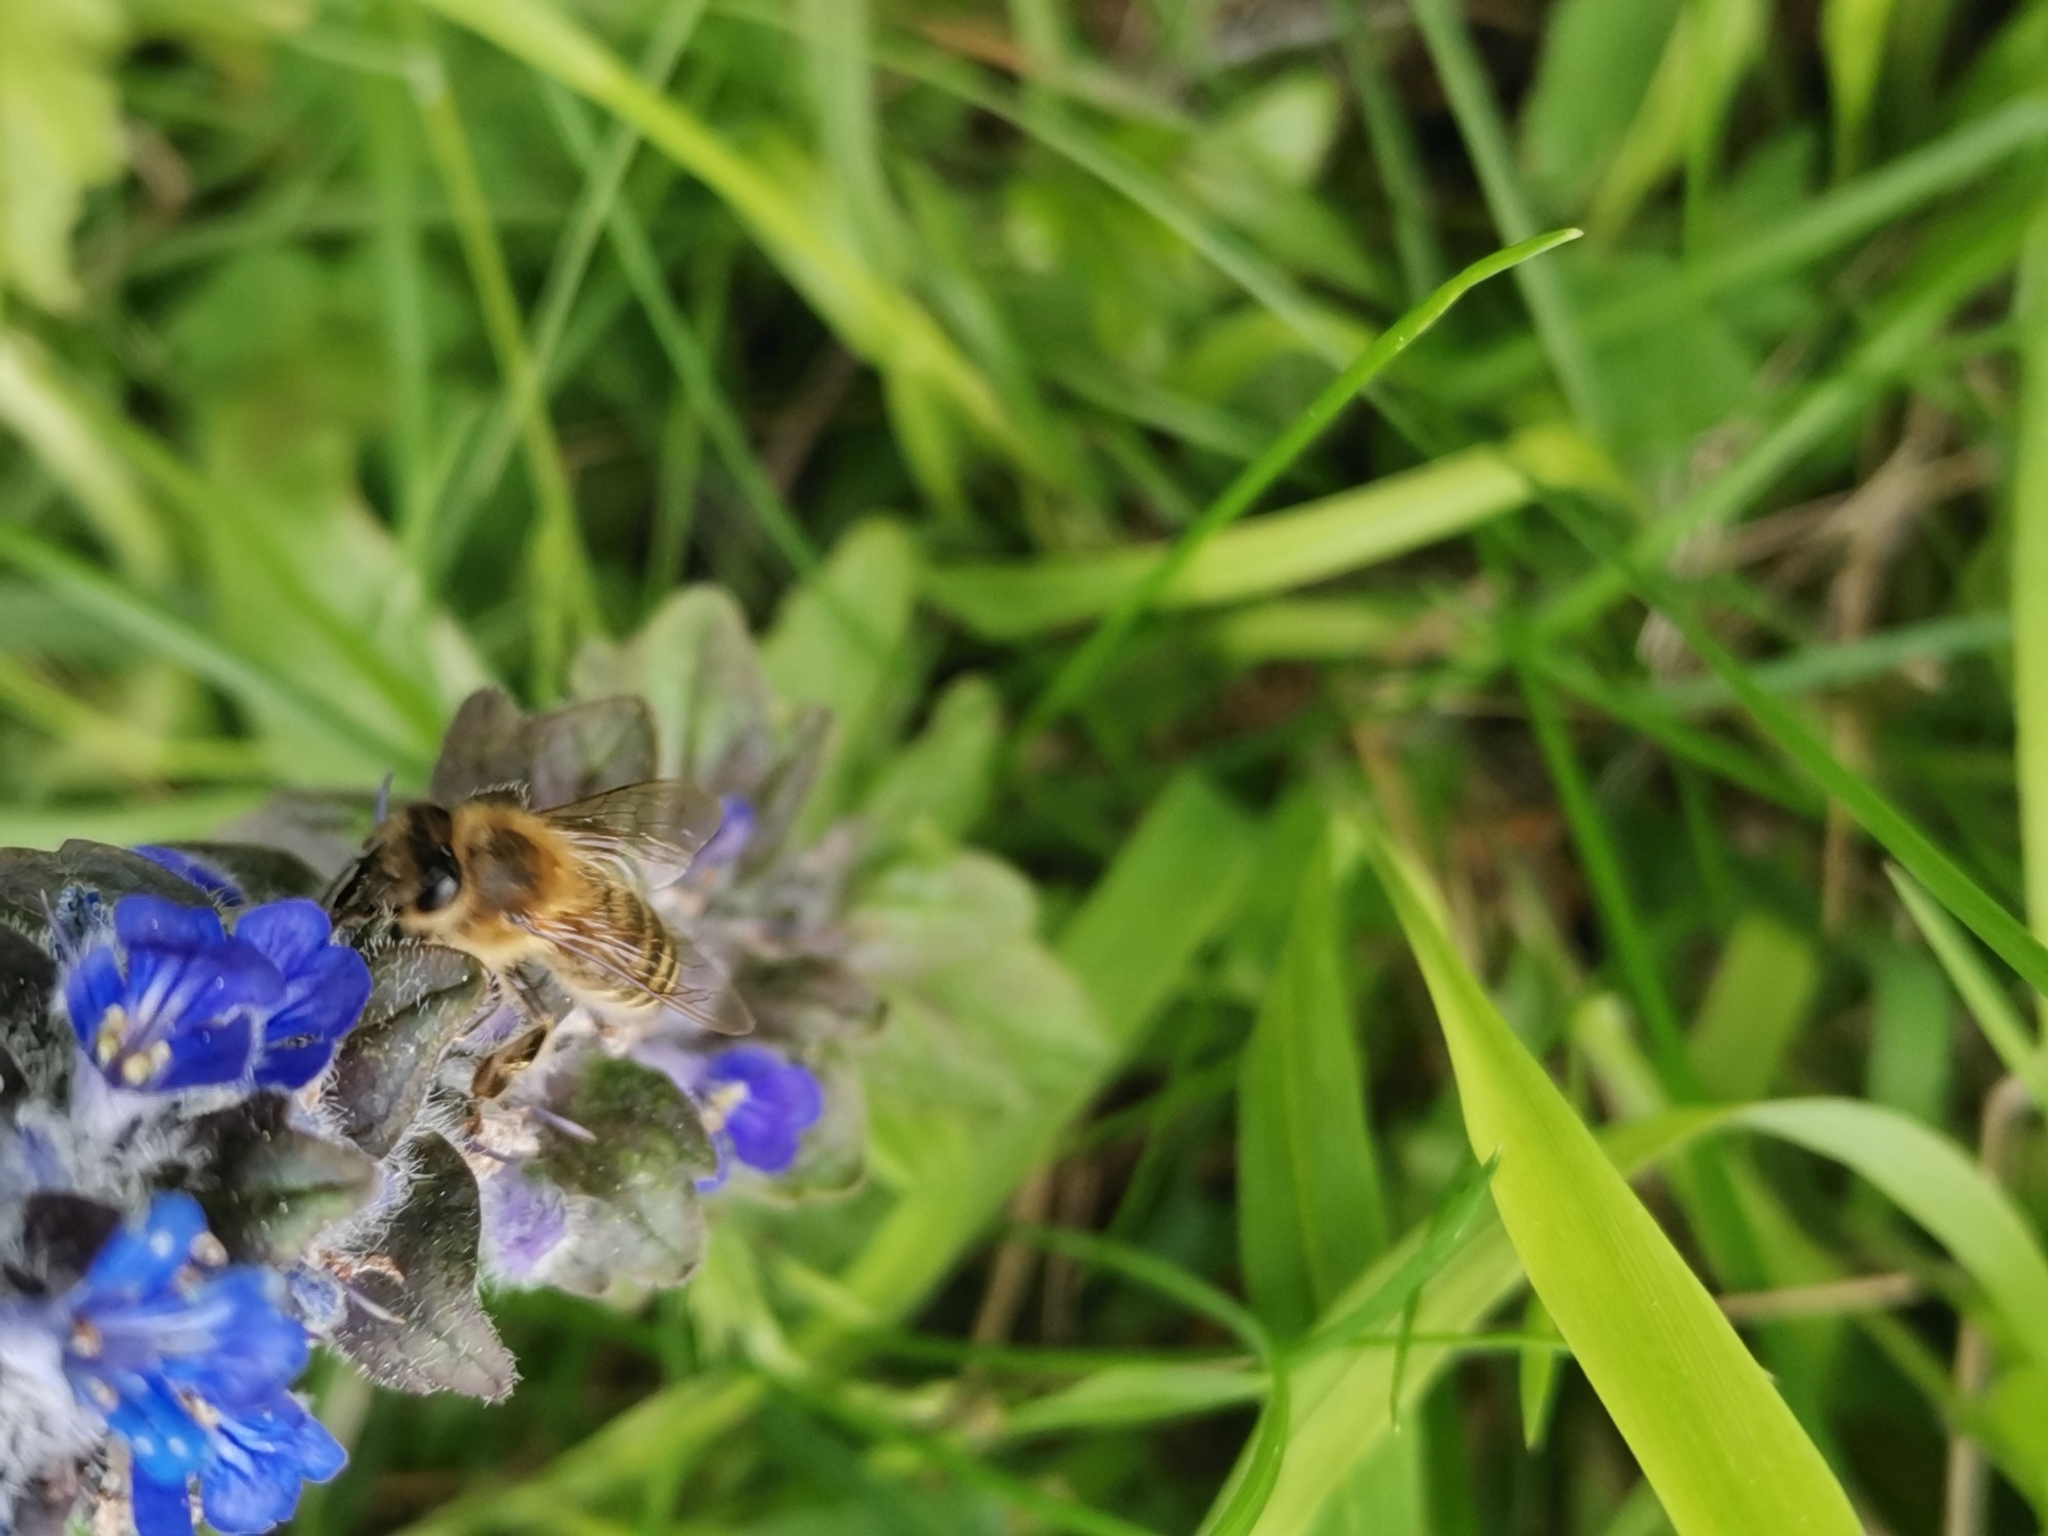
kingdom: Animalia
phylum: Arthropoda
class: Insecta
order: Hymenoptera
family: Apidae
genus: Apis
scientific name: Apis mellifera
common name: Honey bee
